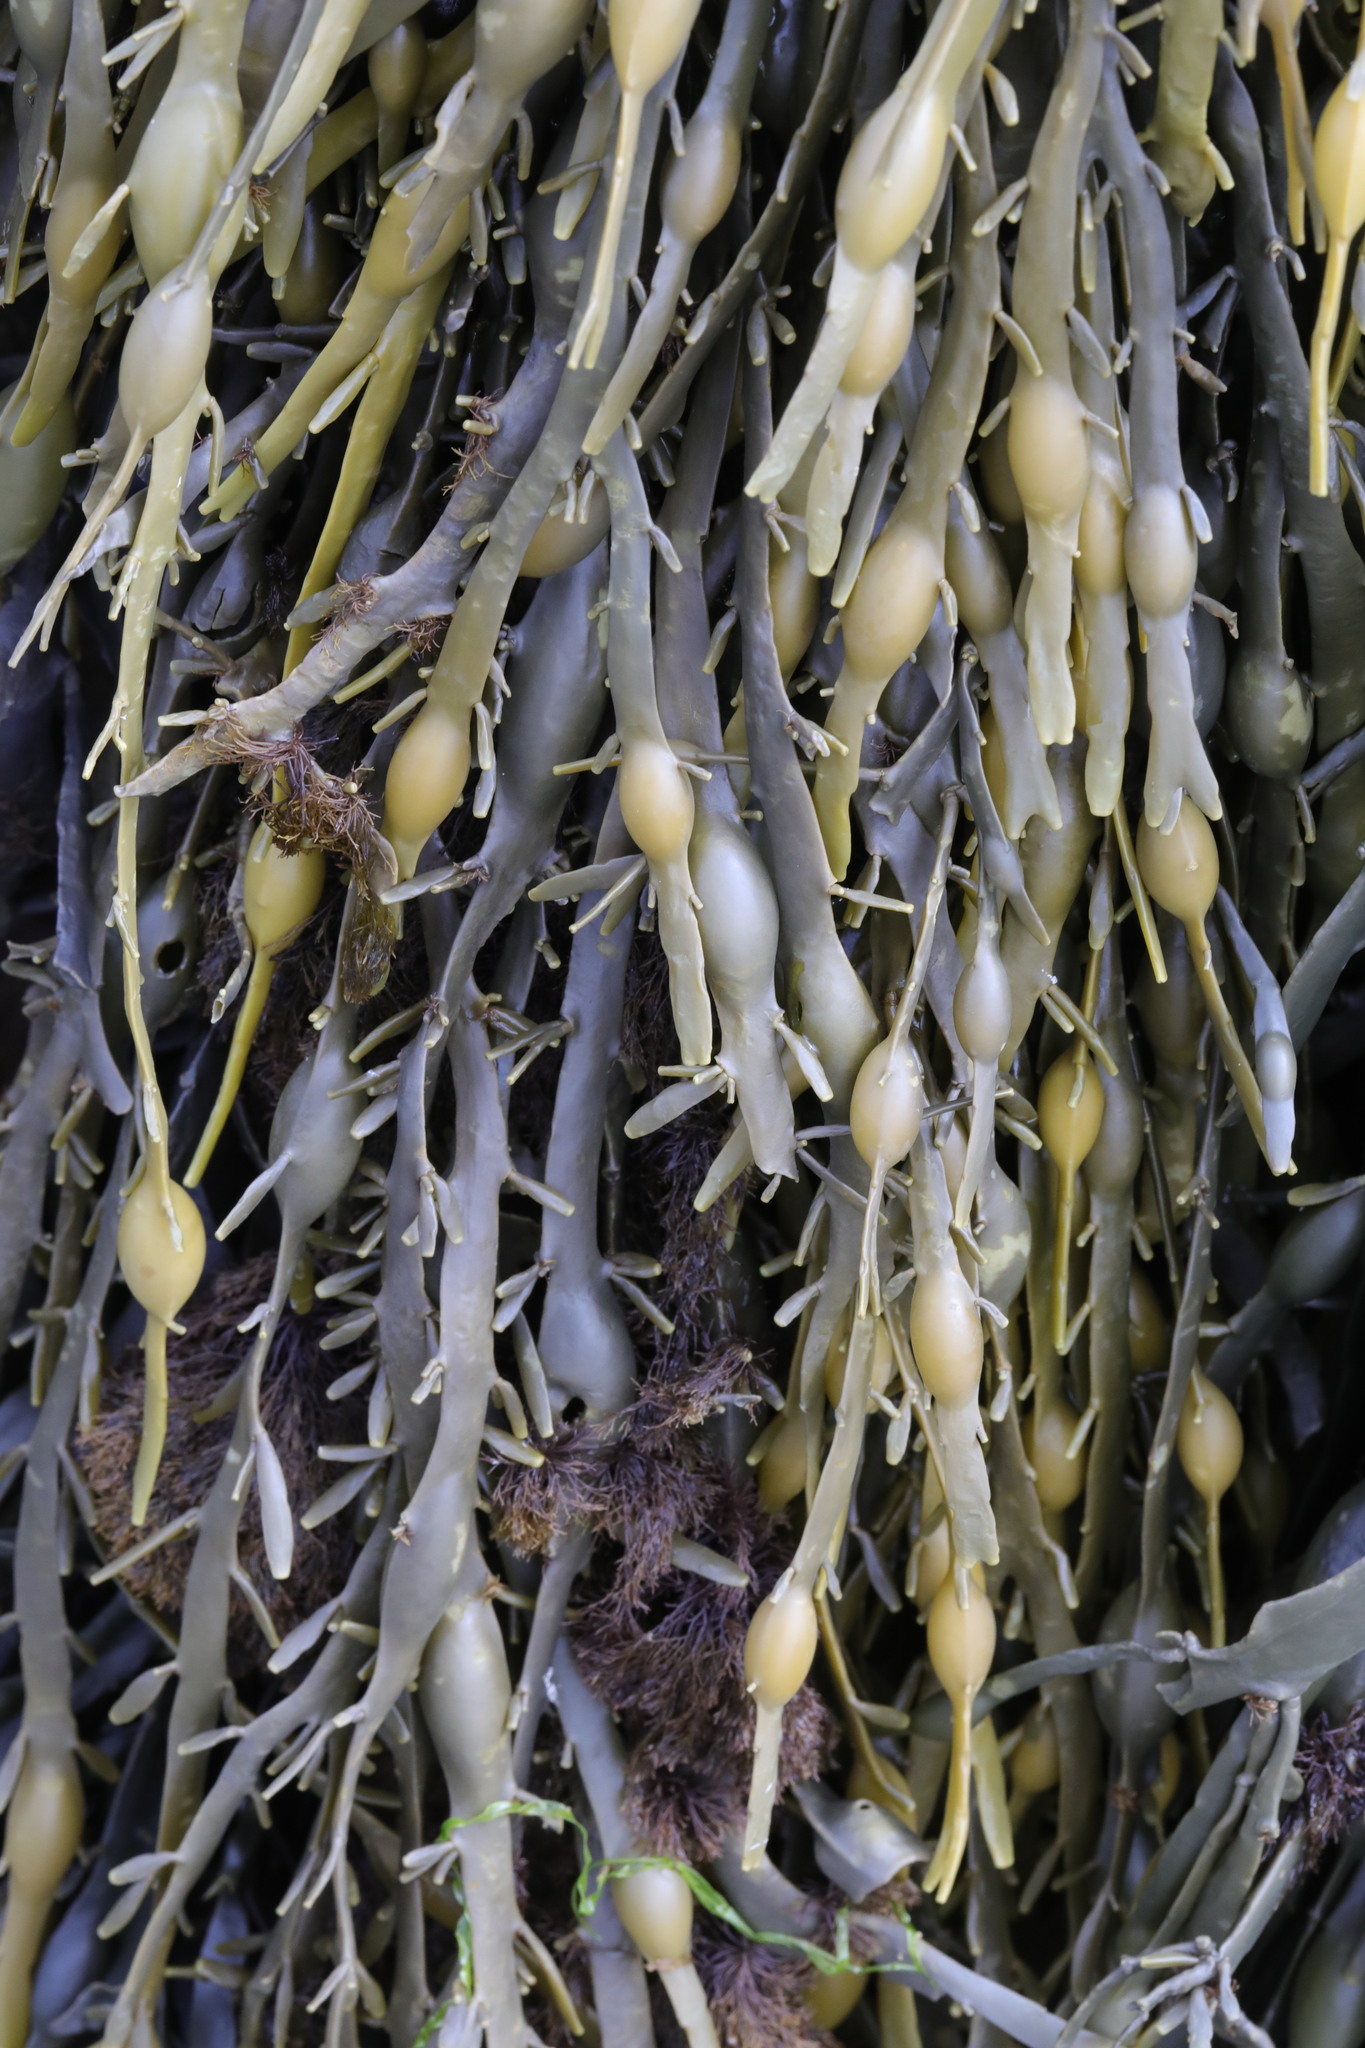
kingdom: Chromista
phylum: Ochrophyta
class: Phaeophyceae
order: Fucales
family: Fucaceae
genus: Ascophyllum
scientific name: Ascophyllum nodosum
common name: Knotted wrack
